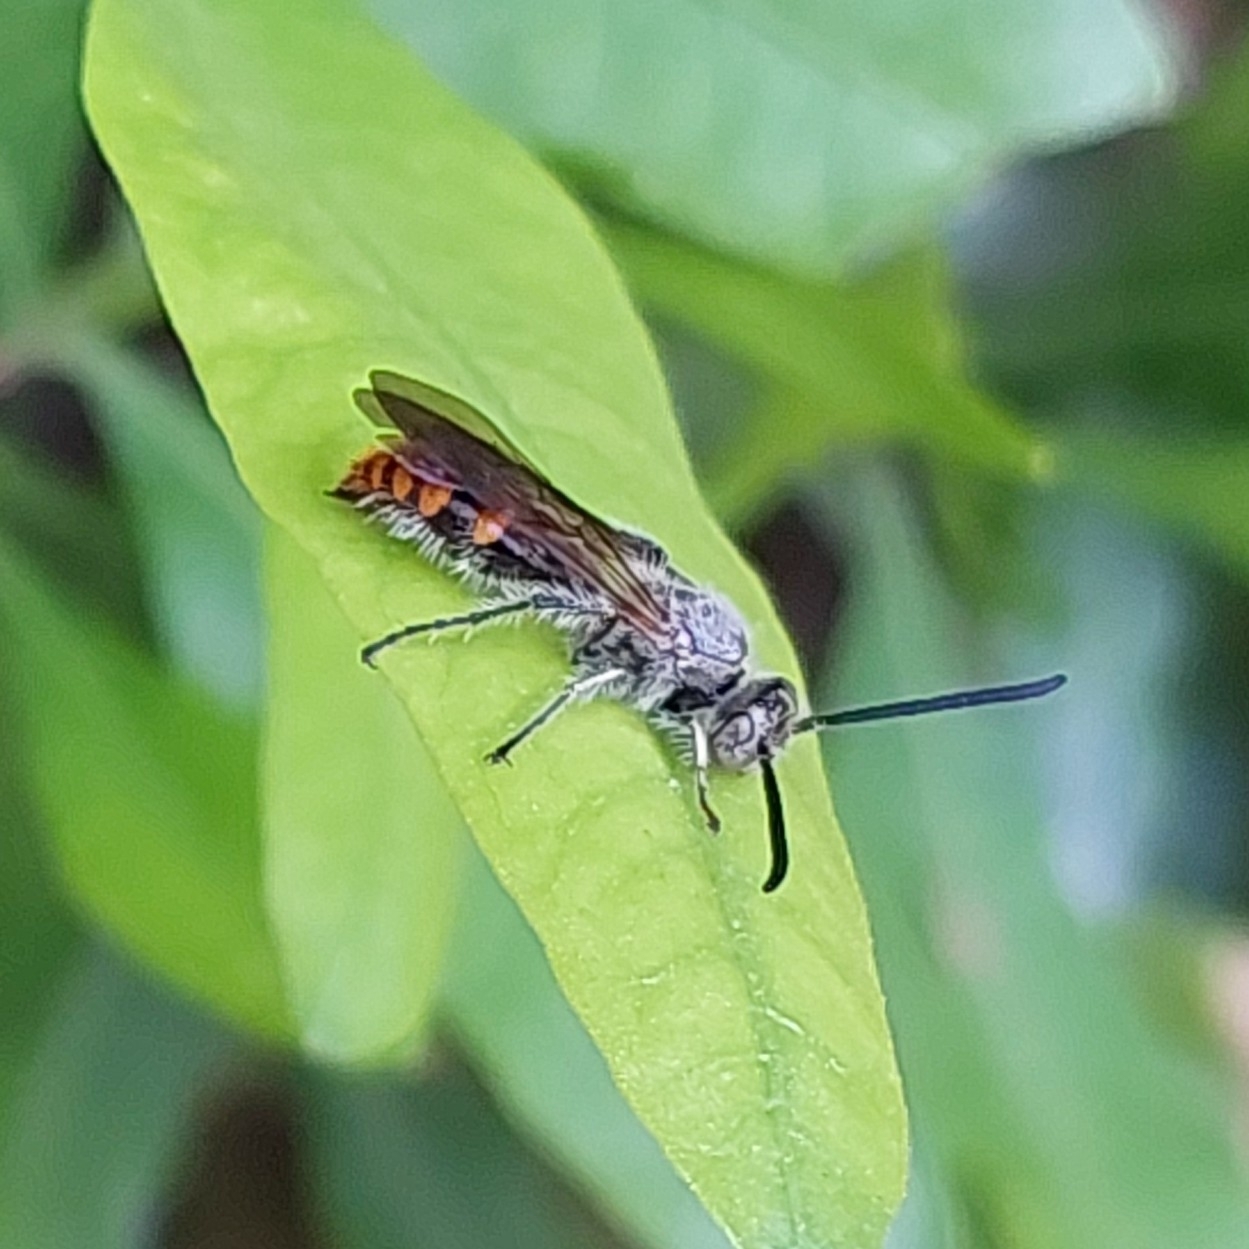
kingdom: Animalia
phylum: Arthropoda
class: Insecta
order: Hymenoptera
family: Scoliidae
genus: Campsomeriella
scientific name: Campsomeriella thoracica
